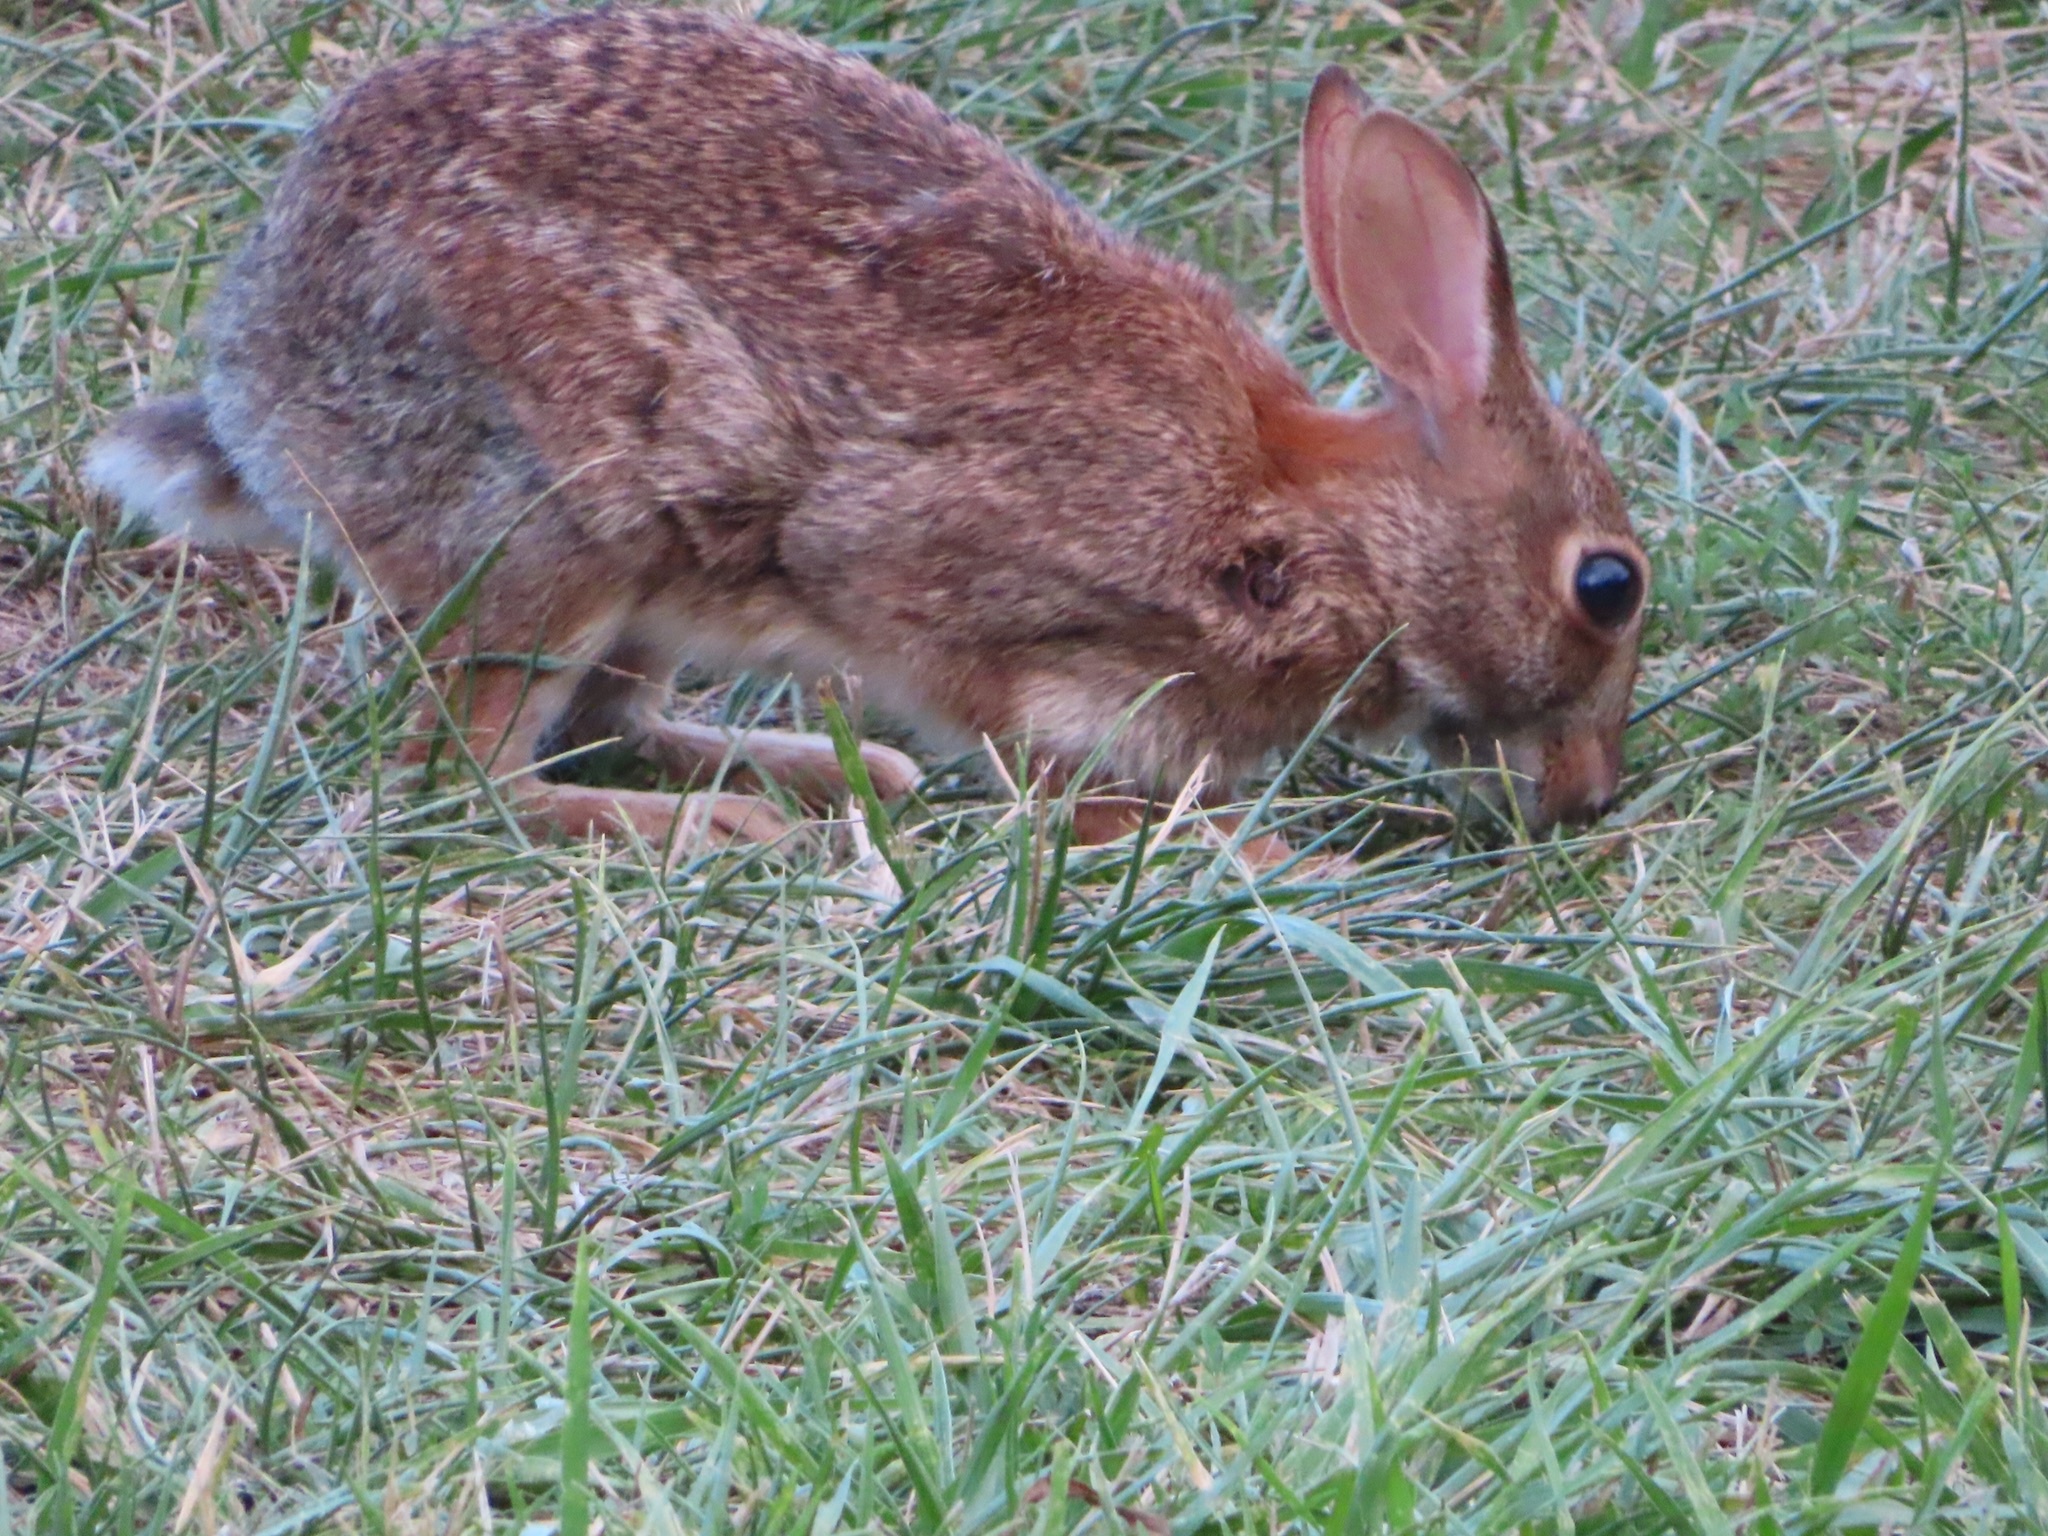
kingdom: Animalia
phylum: Chordata
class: Mammalia
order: Lagomorpha
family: Leporidae
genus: Sylvilagus
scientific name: Sylvilagus floridanus
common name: Eastern cottontail
